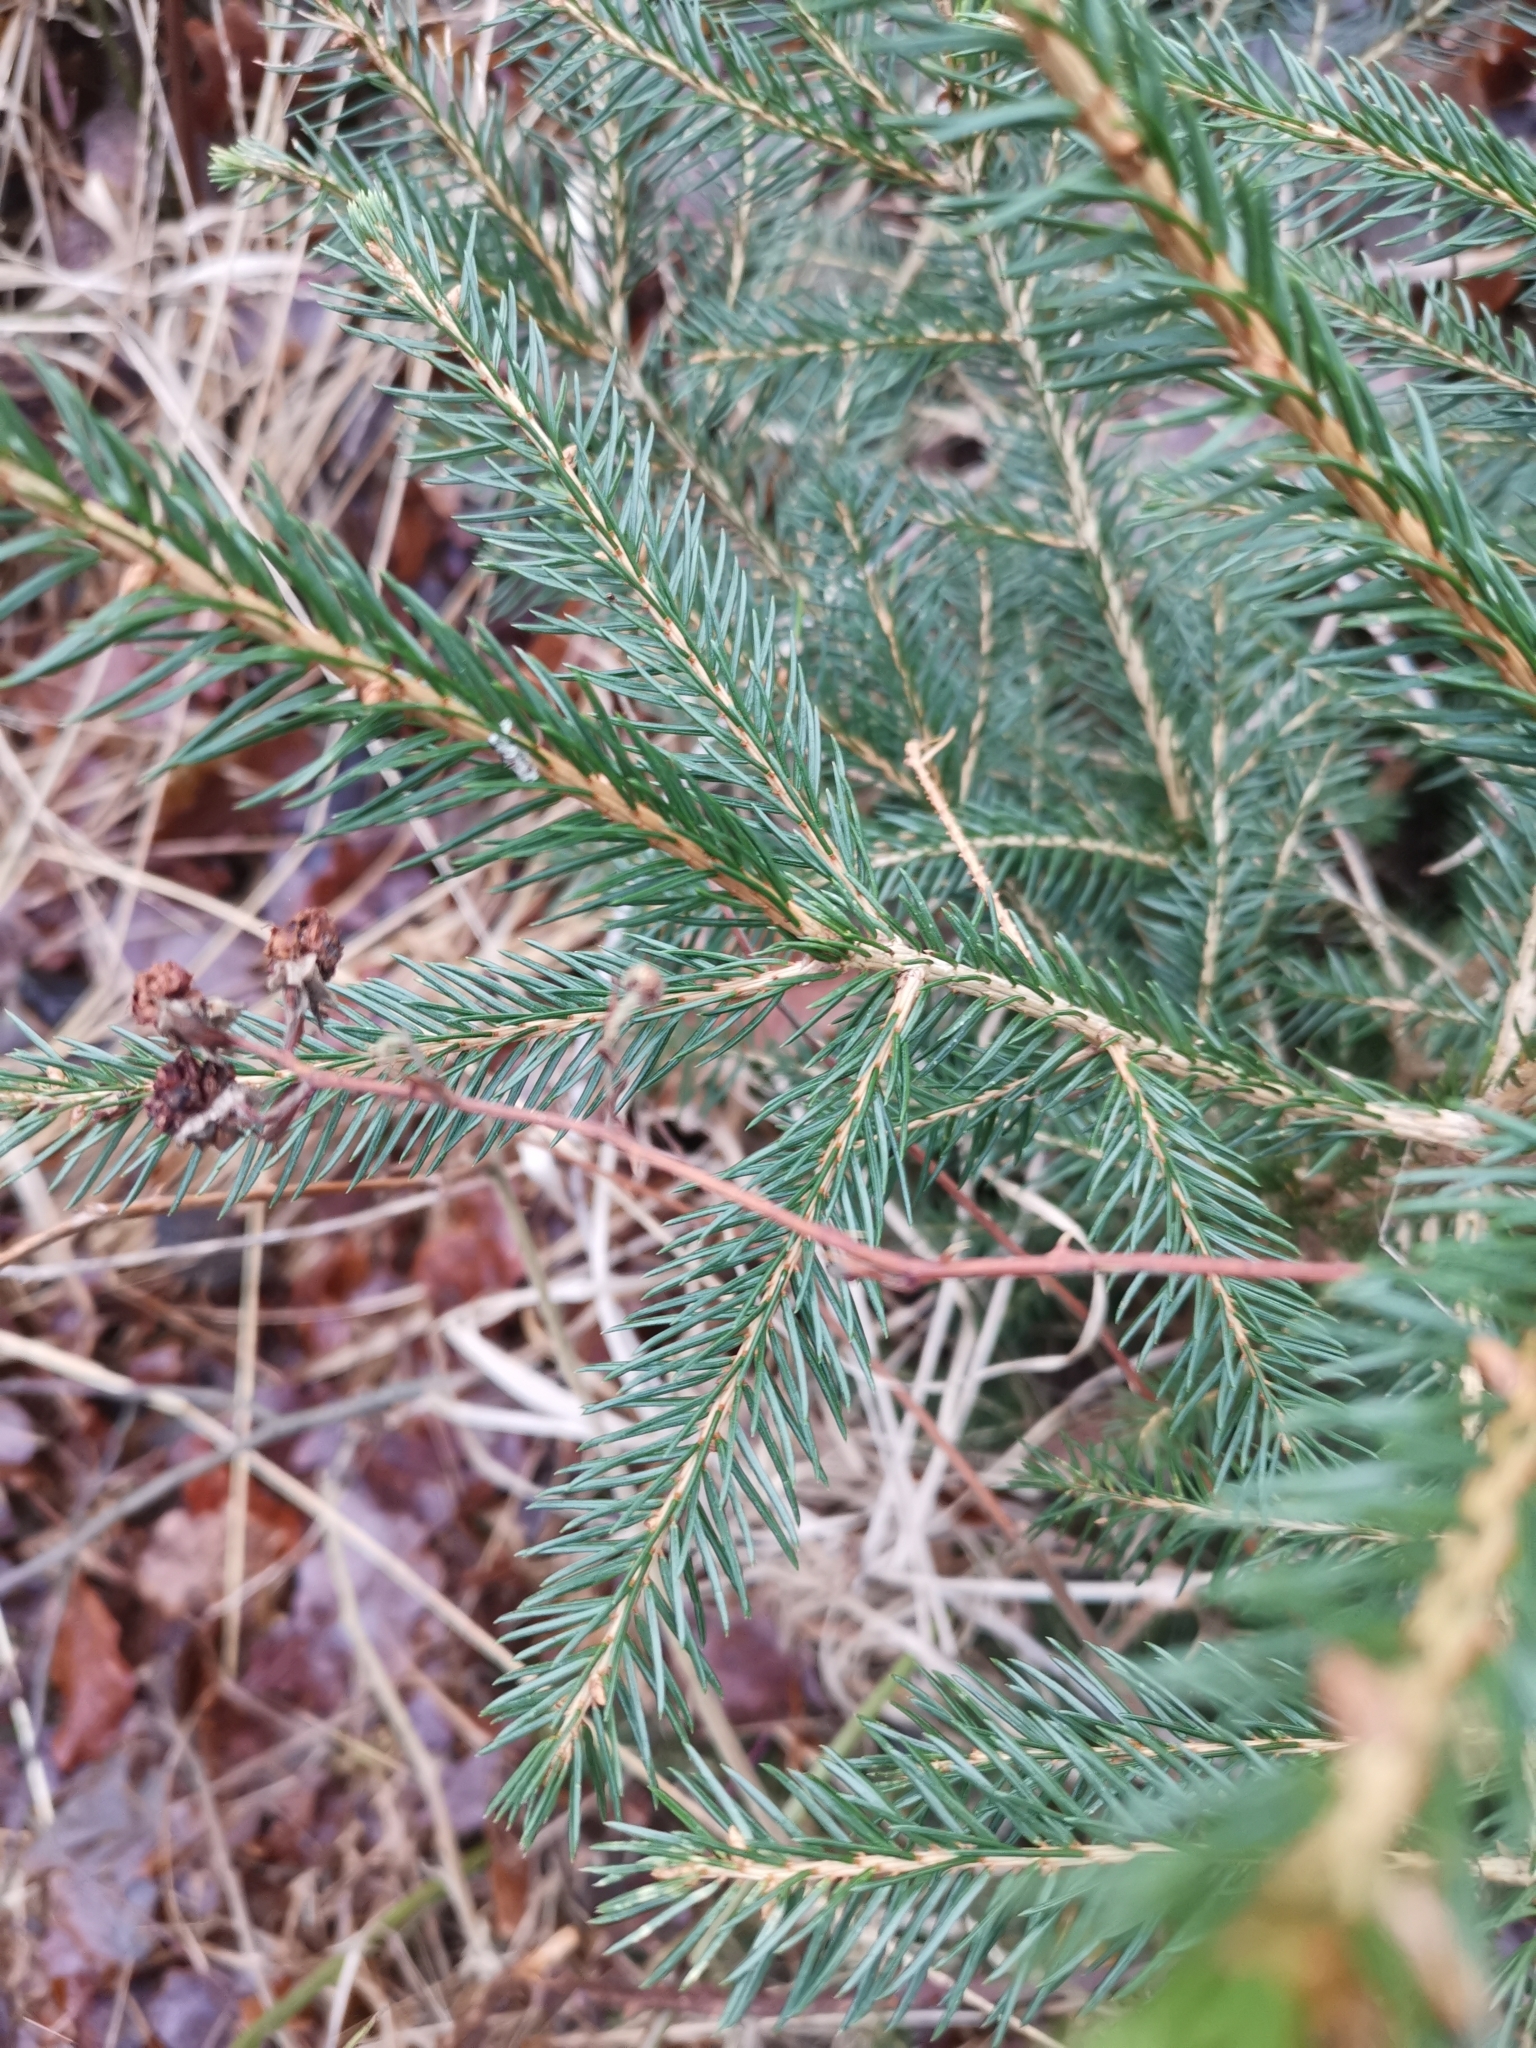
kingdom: Plantae
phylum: Tracheophyta
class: Pinopsida
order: Pinales
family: Pinaceae
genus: Picea
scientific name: Picea abies
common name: Norway spruce
